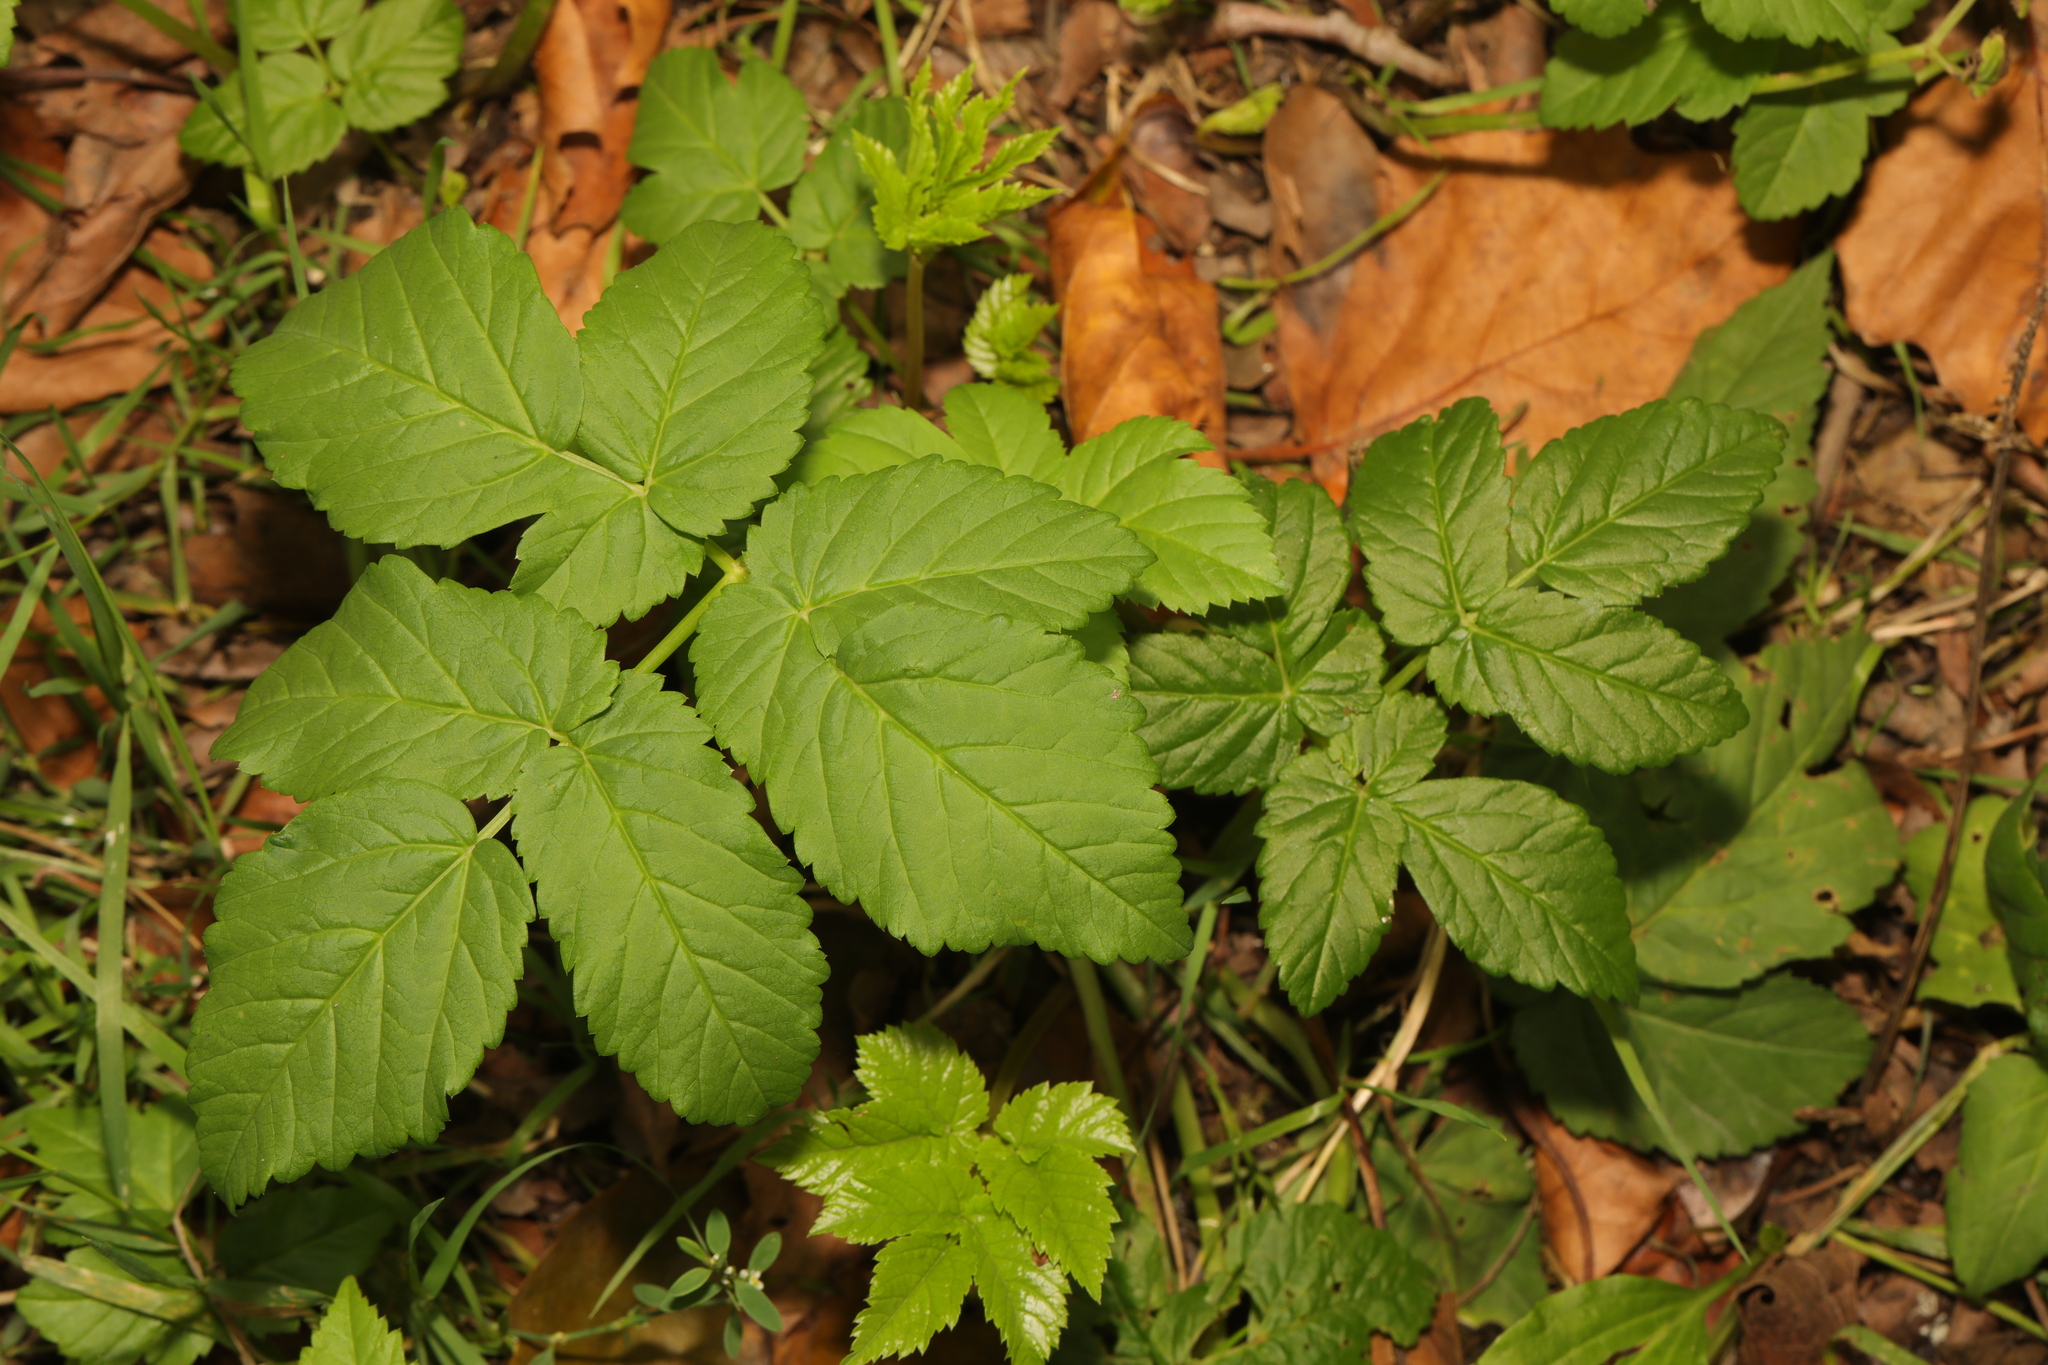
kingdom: Plantae
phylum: Tracheophyta
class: Magnoliopsida
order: Apiales
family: Apiaceae
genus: Aegopodium
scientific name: Aegopodium podagraria
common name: Ground-elder
